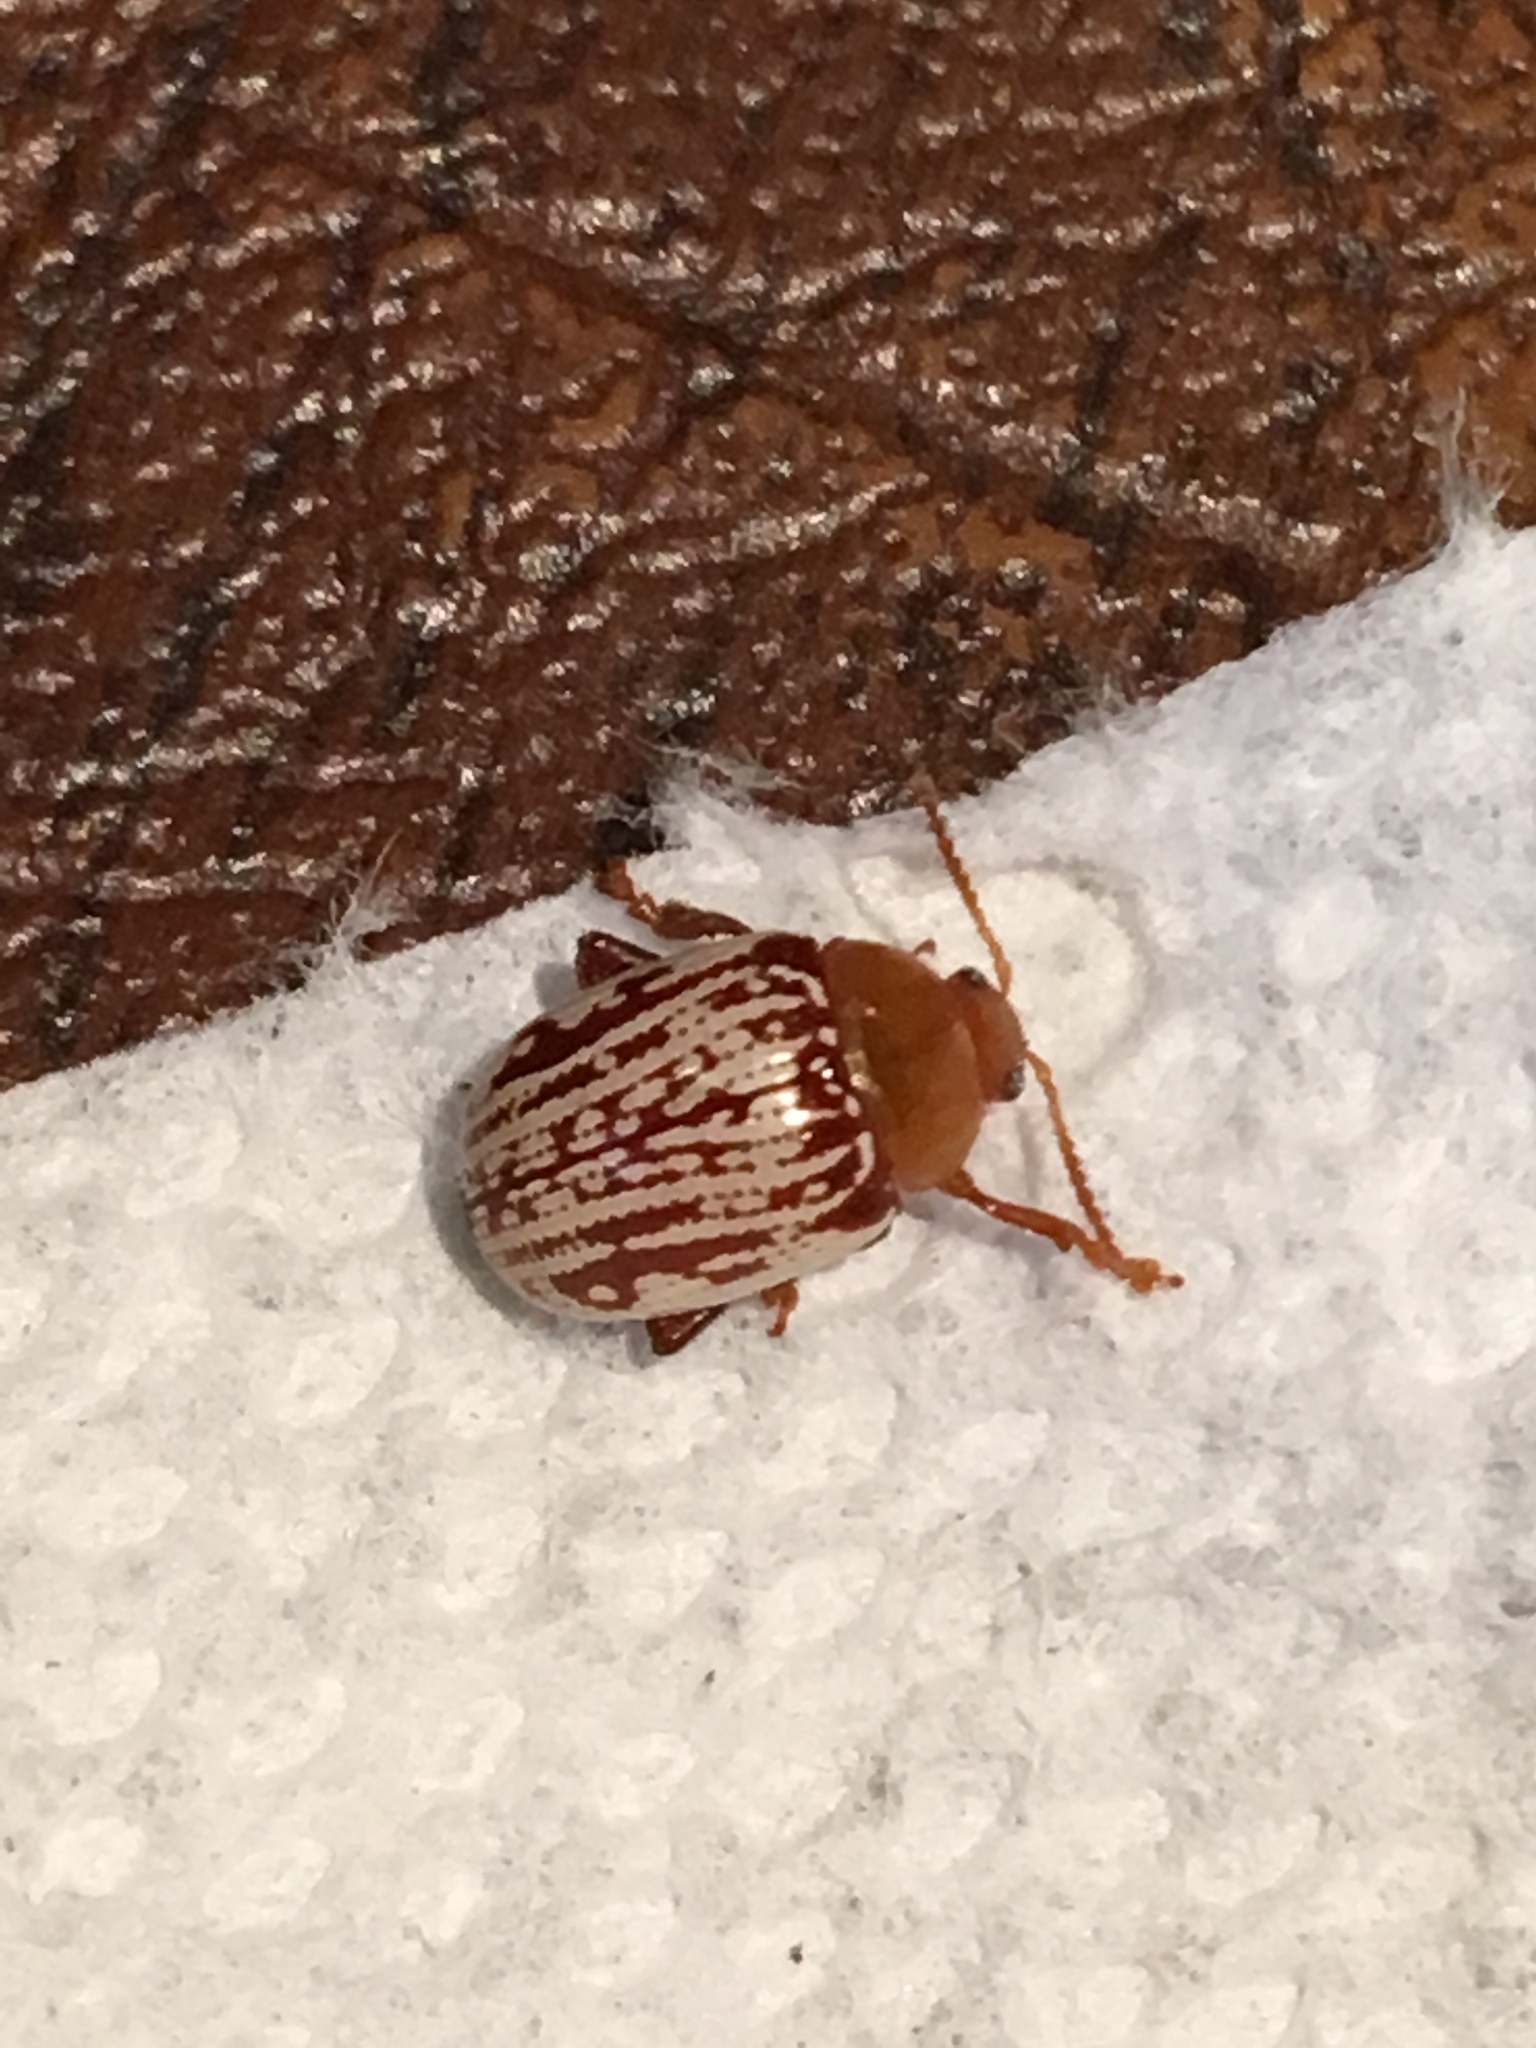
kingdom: Animalia
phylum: Arthropoda
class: Insecta
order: Coleoptera
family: Chrysomelidae
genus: Blepharida
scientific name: Blepharida rhois
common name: Sumac flea beetle
